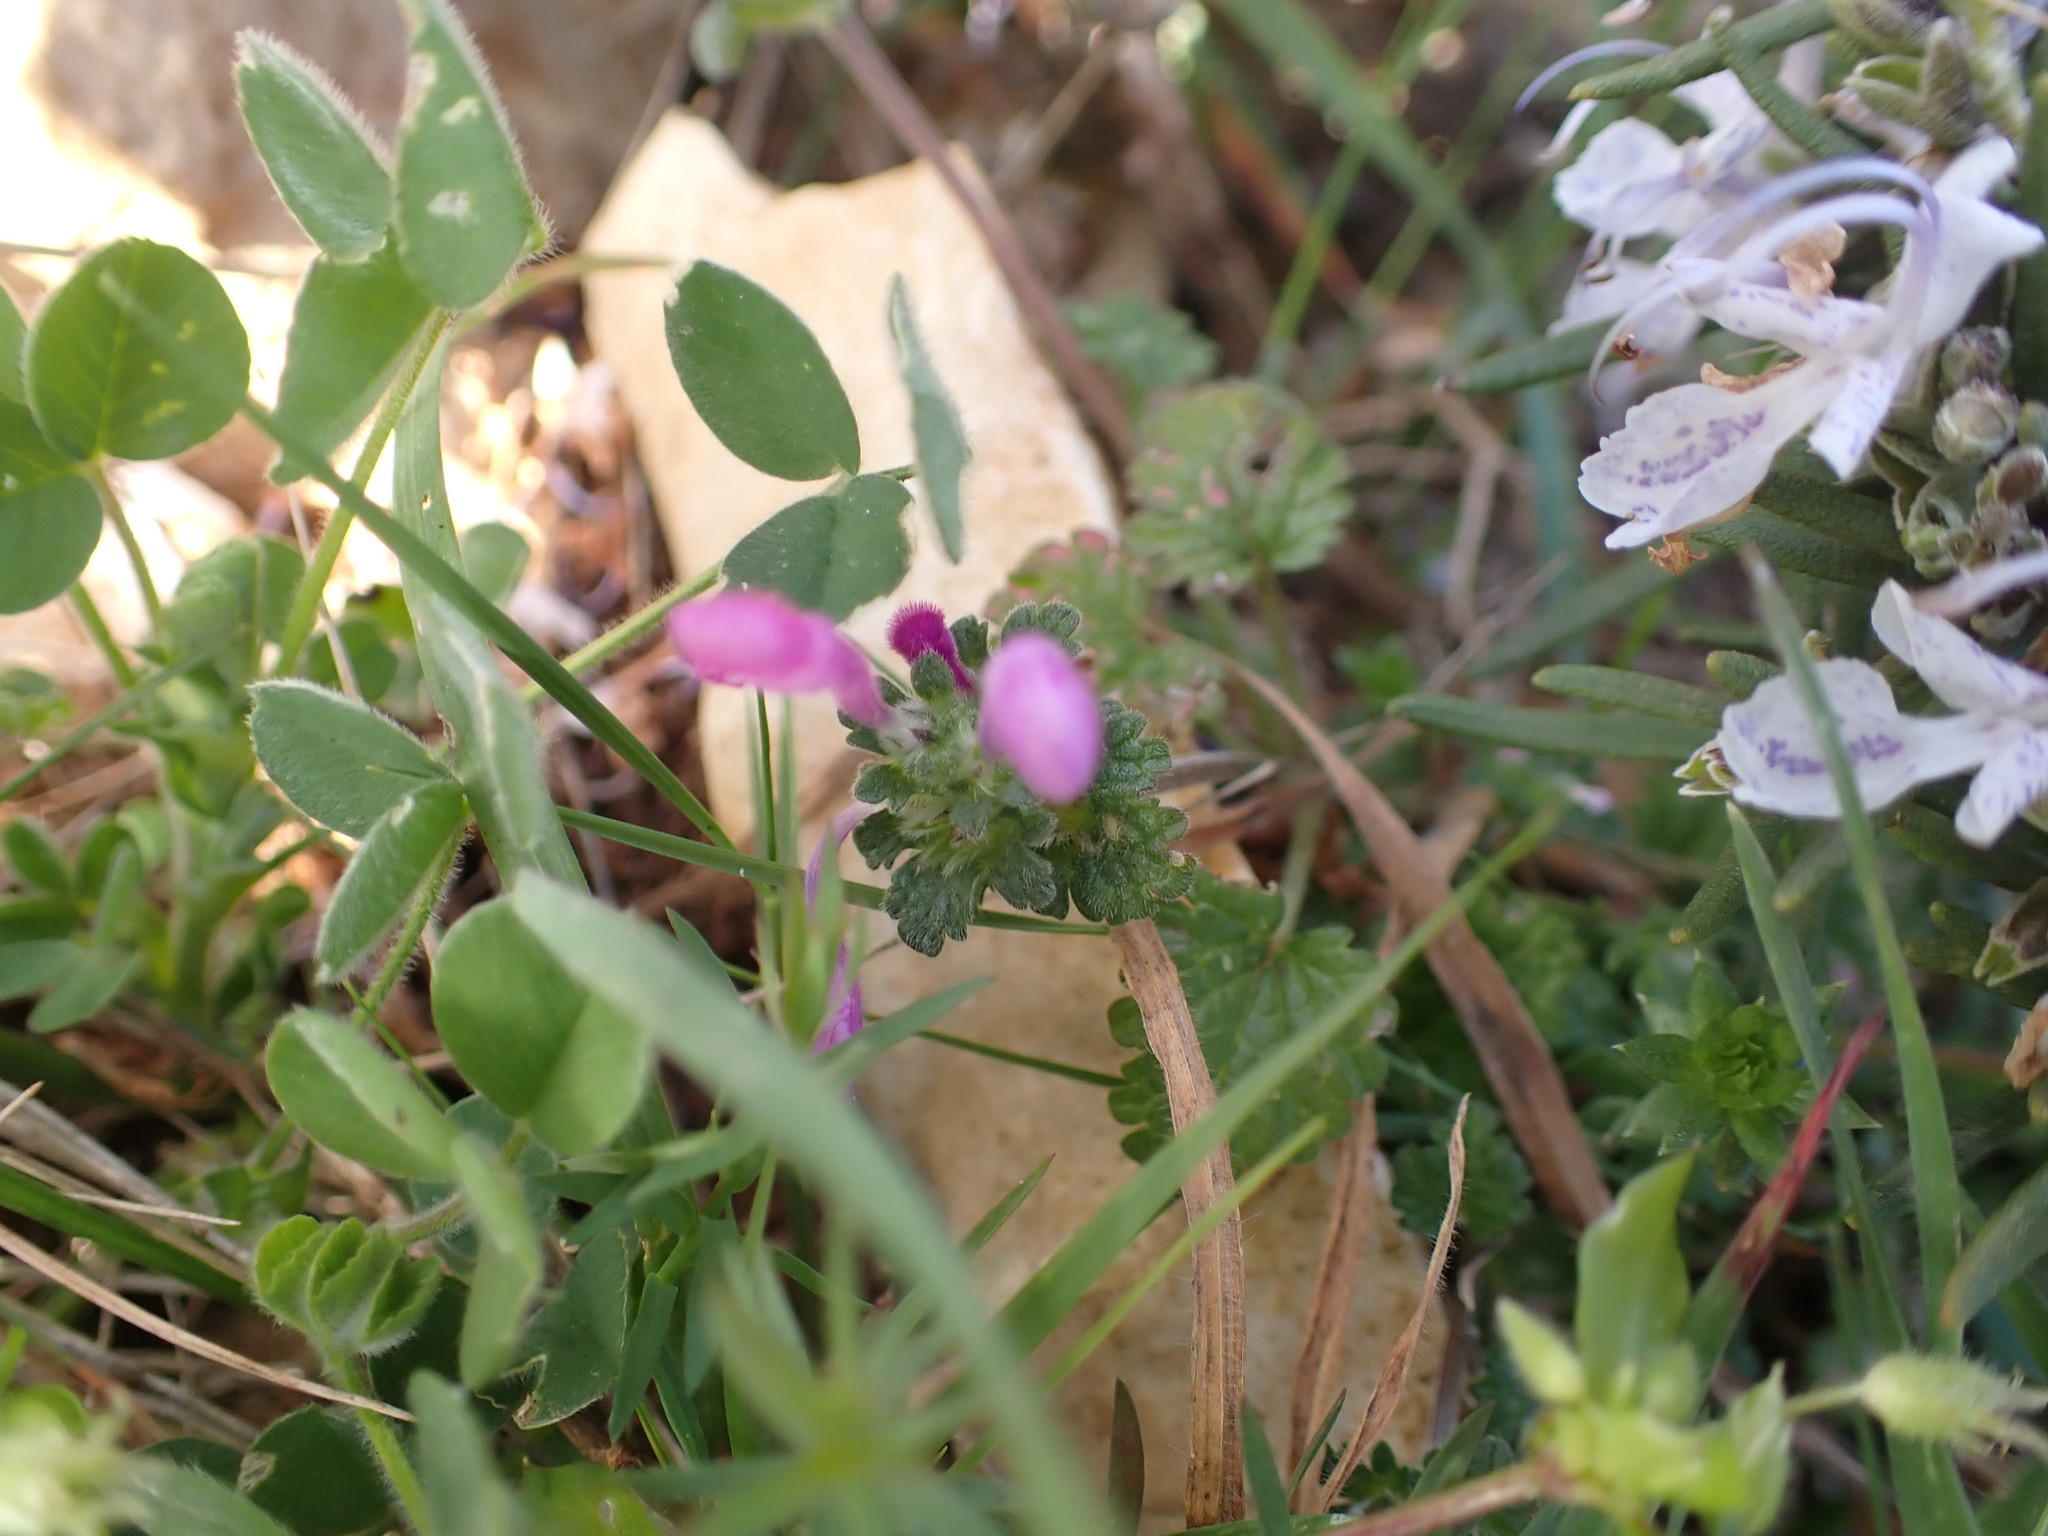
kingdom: Plantae
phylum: Tracheophyta
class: Magnoliopsida
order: Lamiales
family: Lamiaceae
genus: Lamium
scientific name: Lamium amplexicaule
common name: Henbit dead-nettle
